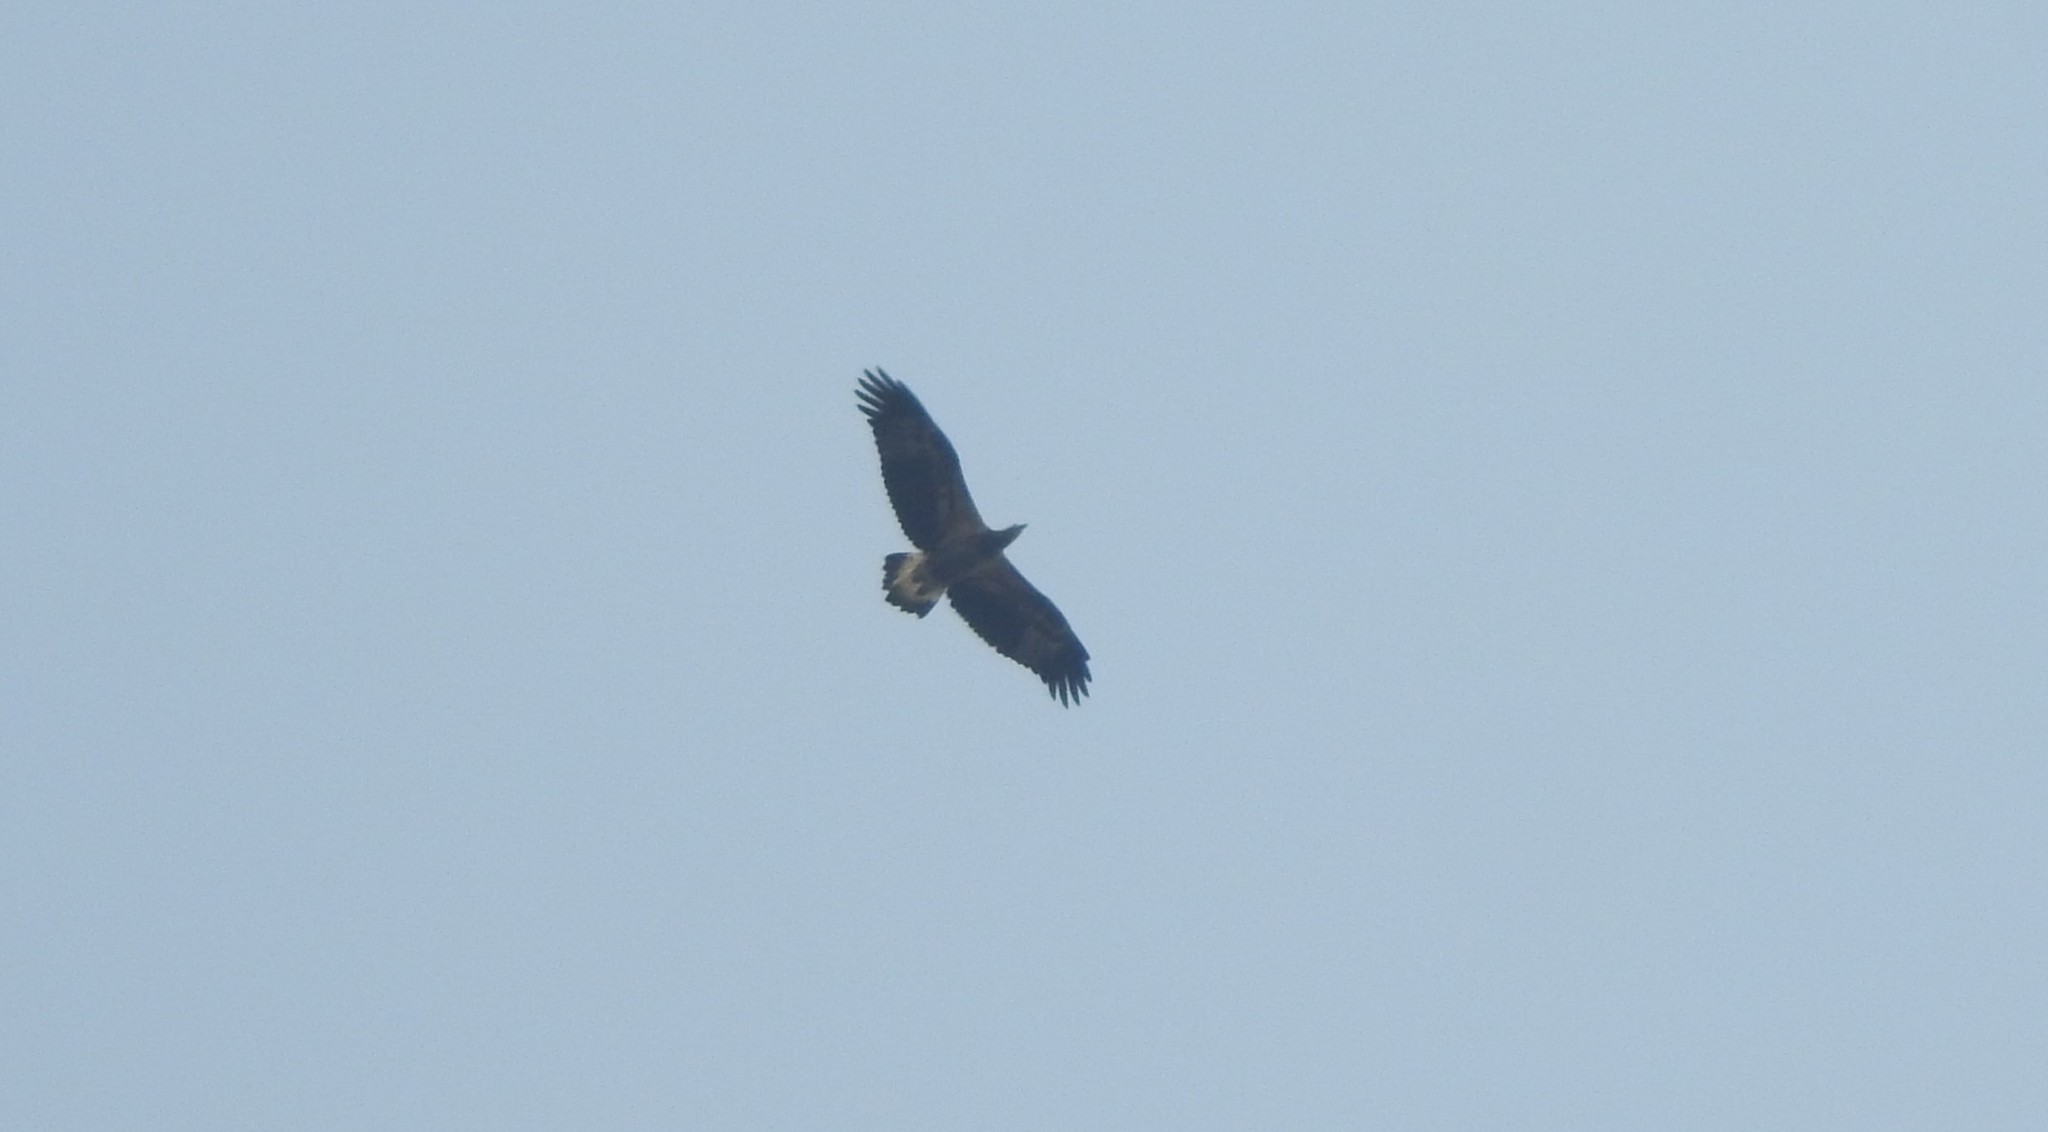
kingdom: Animalia
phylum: Chordata
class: Aves
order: Accipitriformes
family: Accipitridae
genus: Haliaeetus
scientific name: Haliaeetus leucogaster
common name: White-bellied sea eagle
